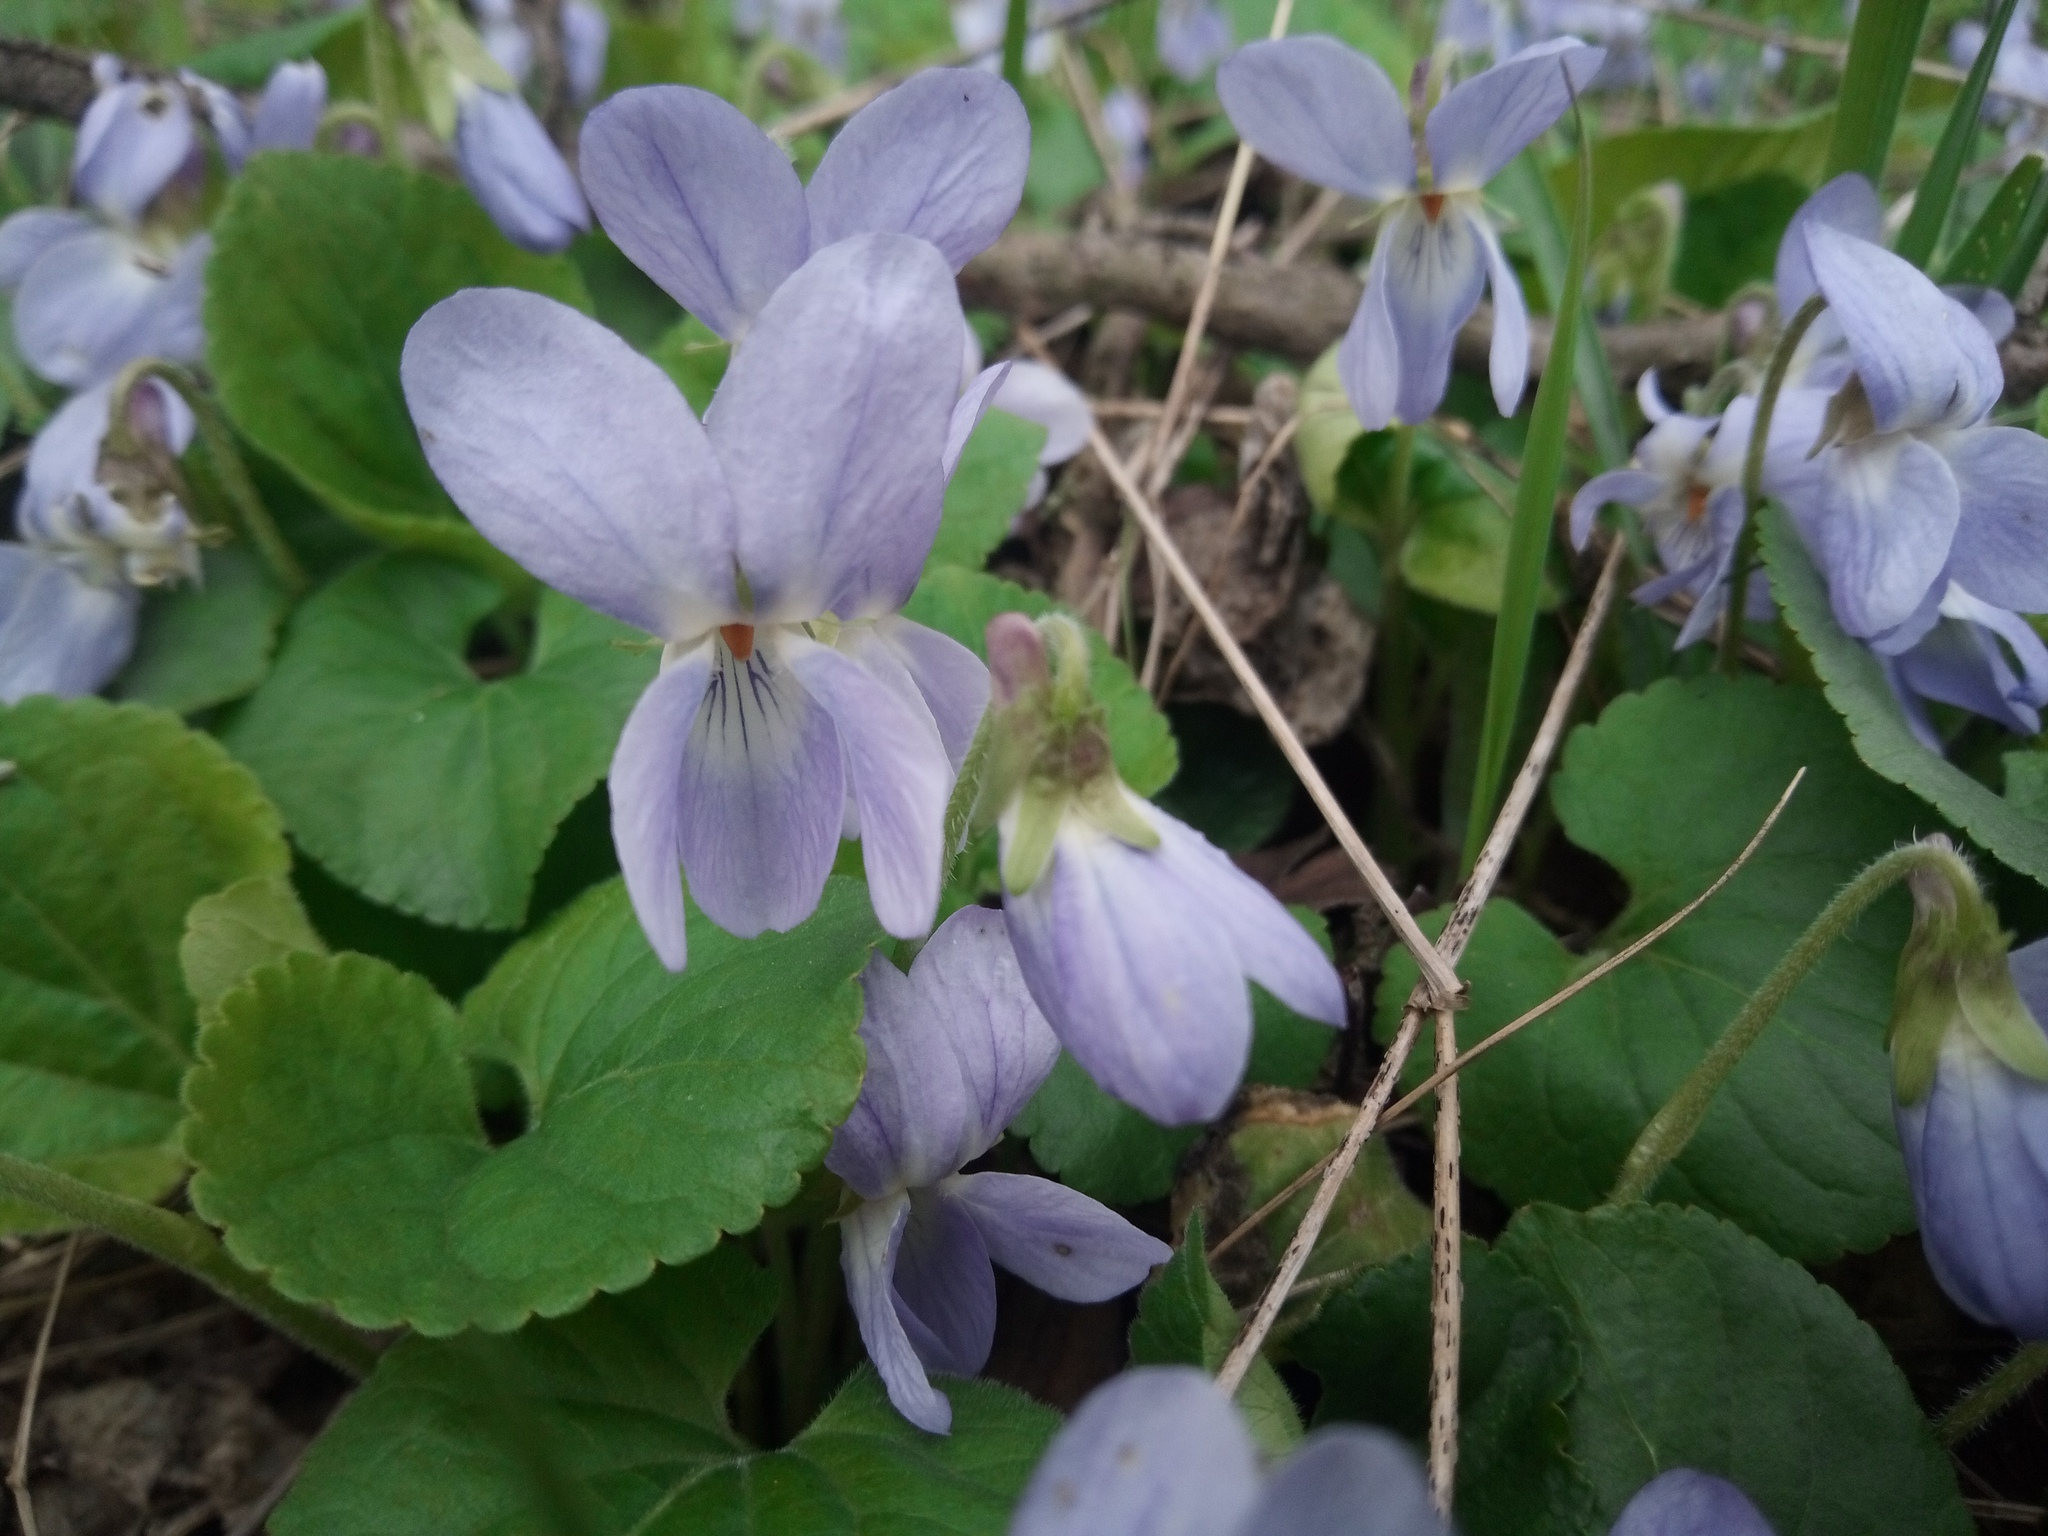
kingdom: Plantae
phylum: Tracheophyta
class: Magnoliopsida
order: Malpighiales
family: Violaceae
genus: Viola
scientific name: Viola suavis
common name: Russian violet
